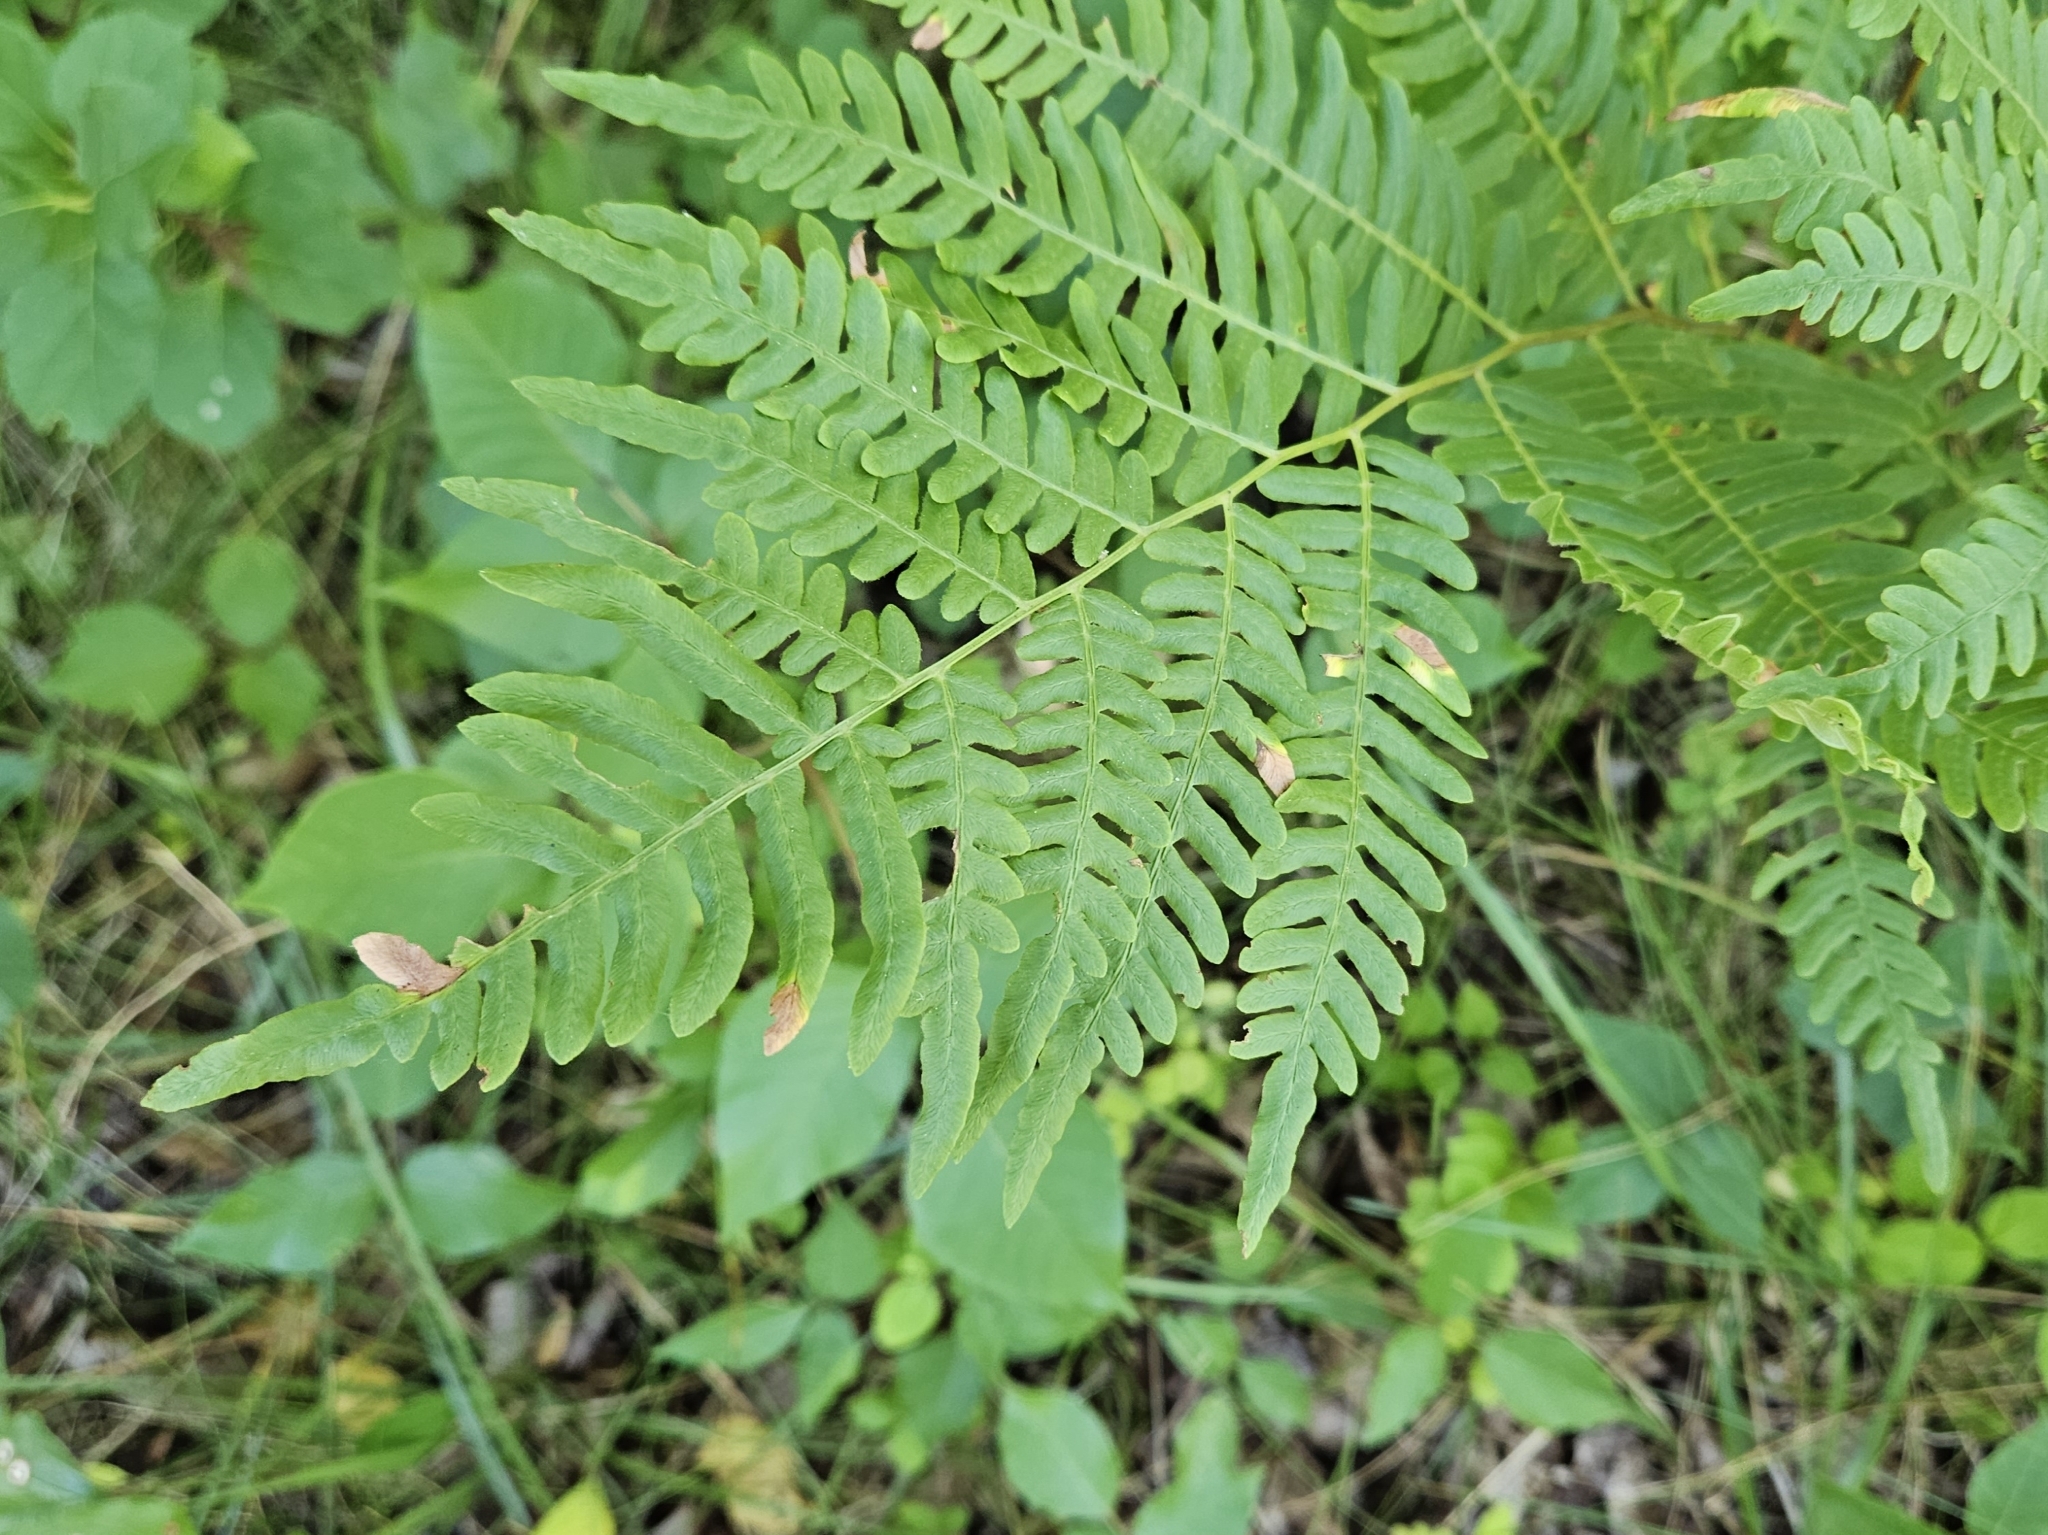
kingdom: Plantae
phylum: Tracheophyta
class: Polypodiopsida
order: Polypodiales
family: Dennstaedtiaceae
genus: Pteridium
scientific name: Pteridium aquilinum
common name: Bracken
